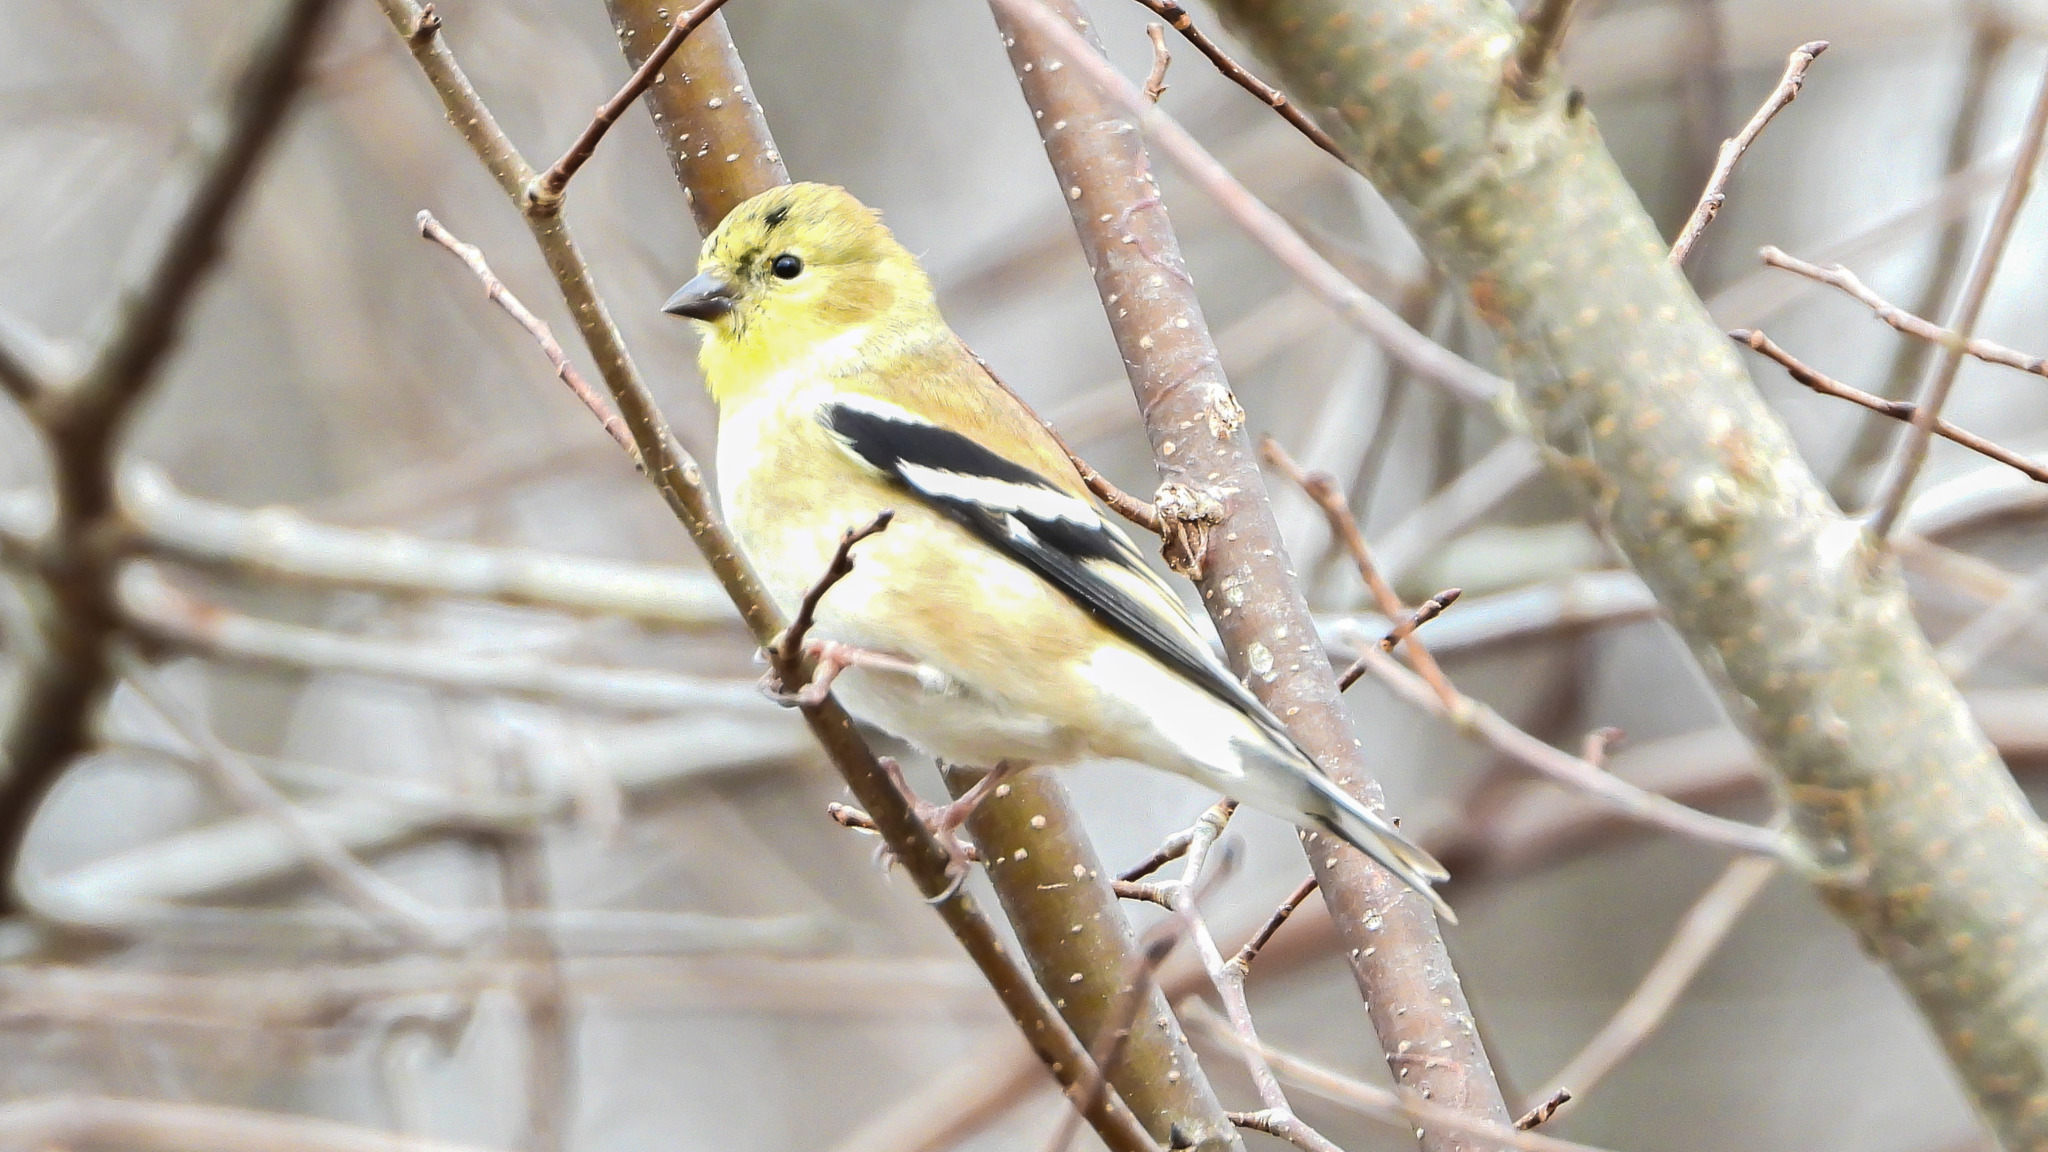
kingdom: Animalia
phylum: Chordata
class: Aves
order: Passeriformes
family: Fringillidae
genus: Spinus
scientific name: Spinus tristis
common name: American goldfinch
